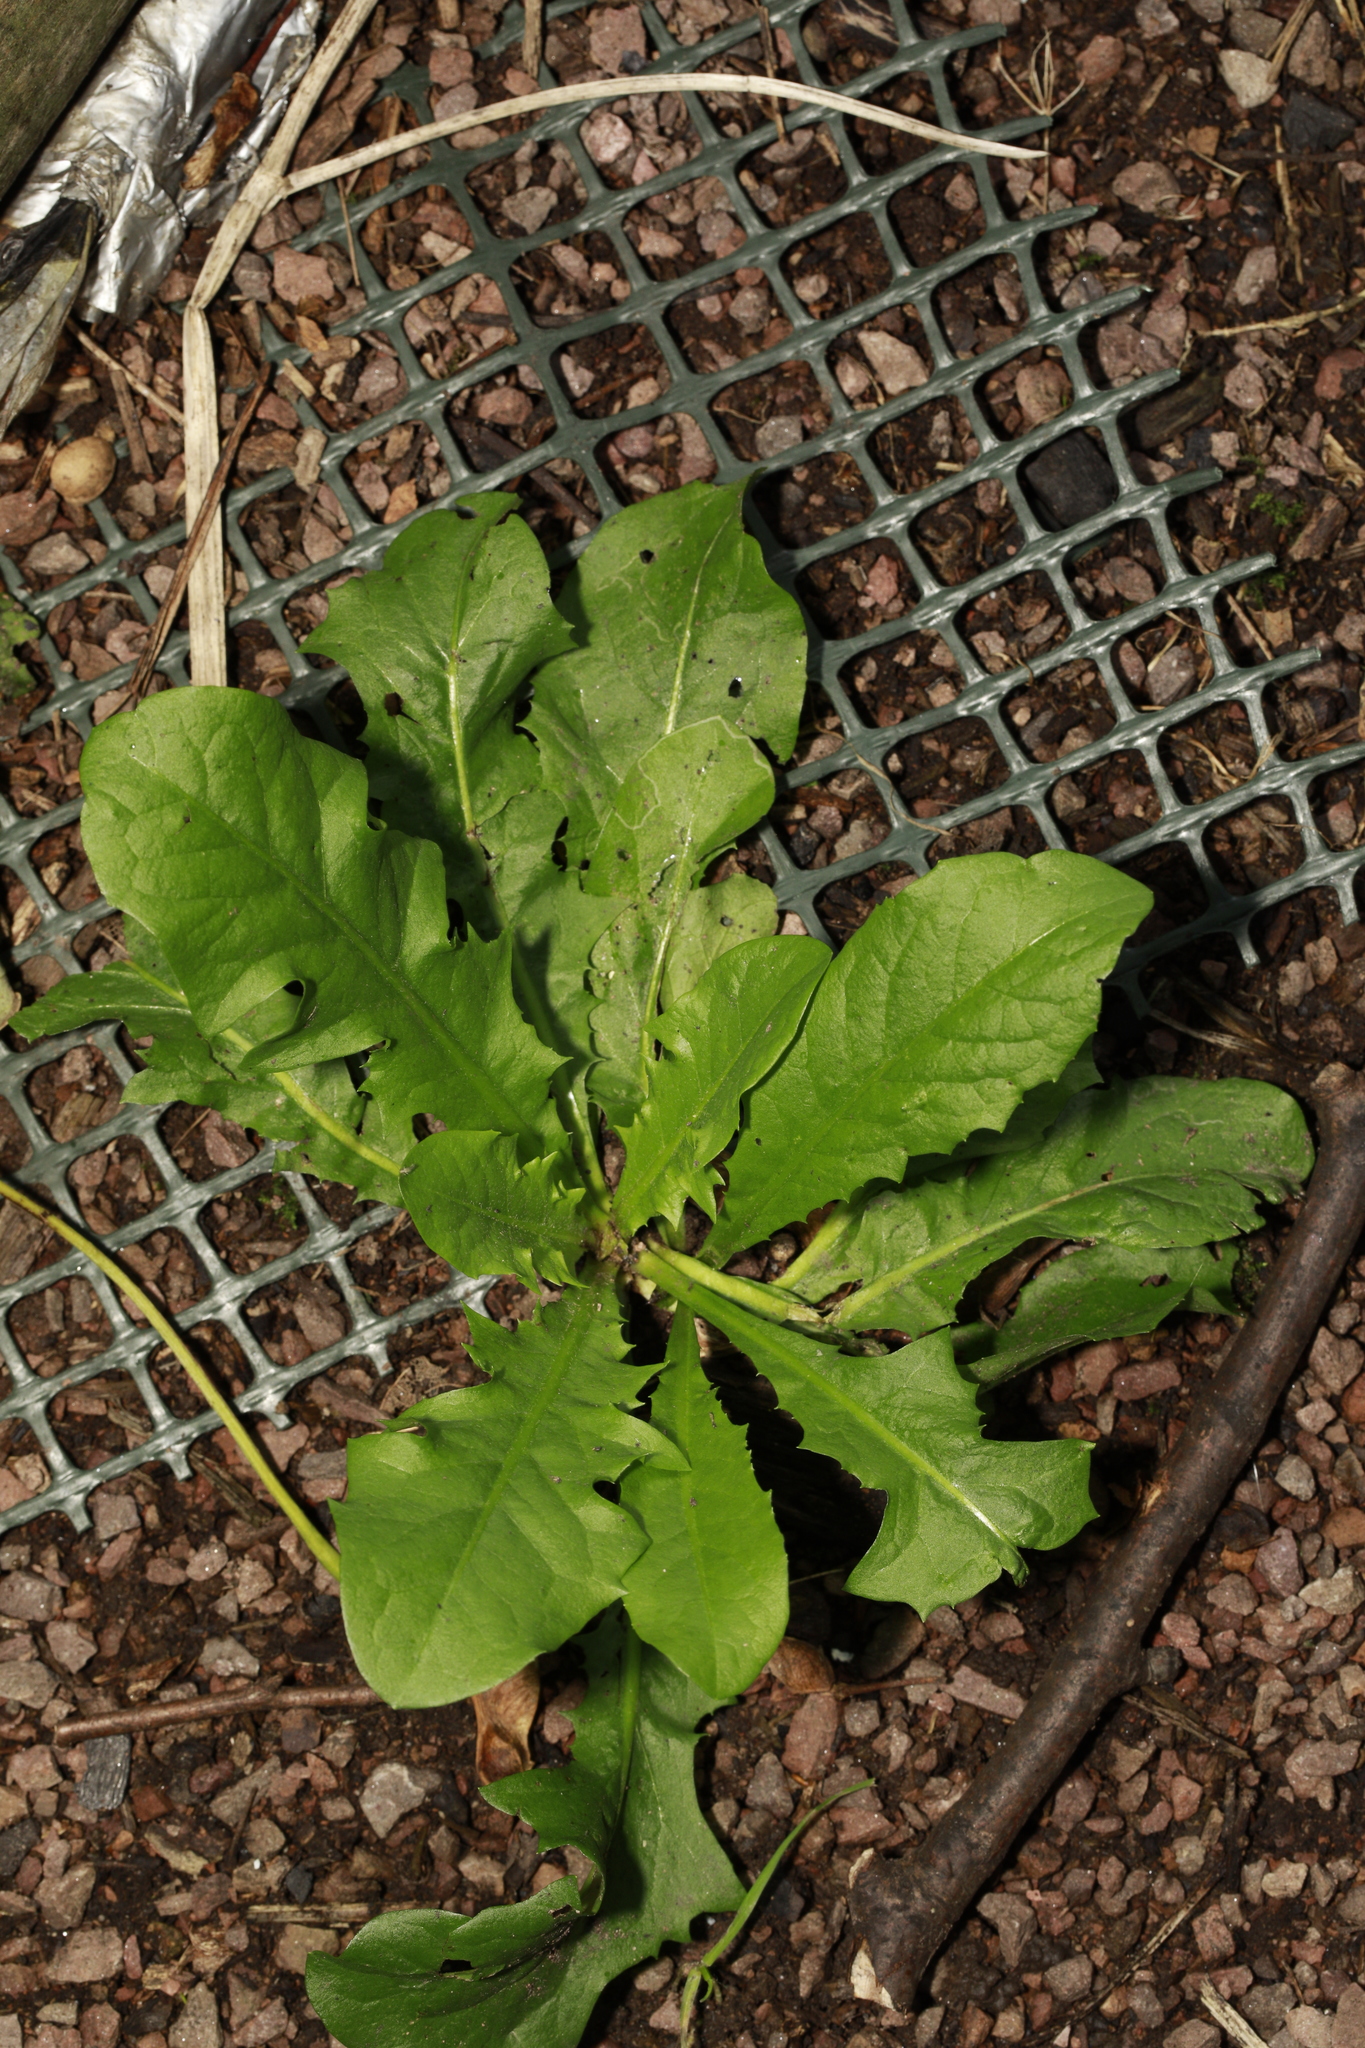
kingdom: Plantae
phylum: Tracheophyta
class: Magnoliopsida
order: Asterales
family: Asteraceae
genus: Taraxacum
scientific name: Taraxacum officinale
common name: Common dandelion
